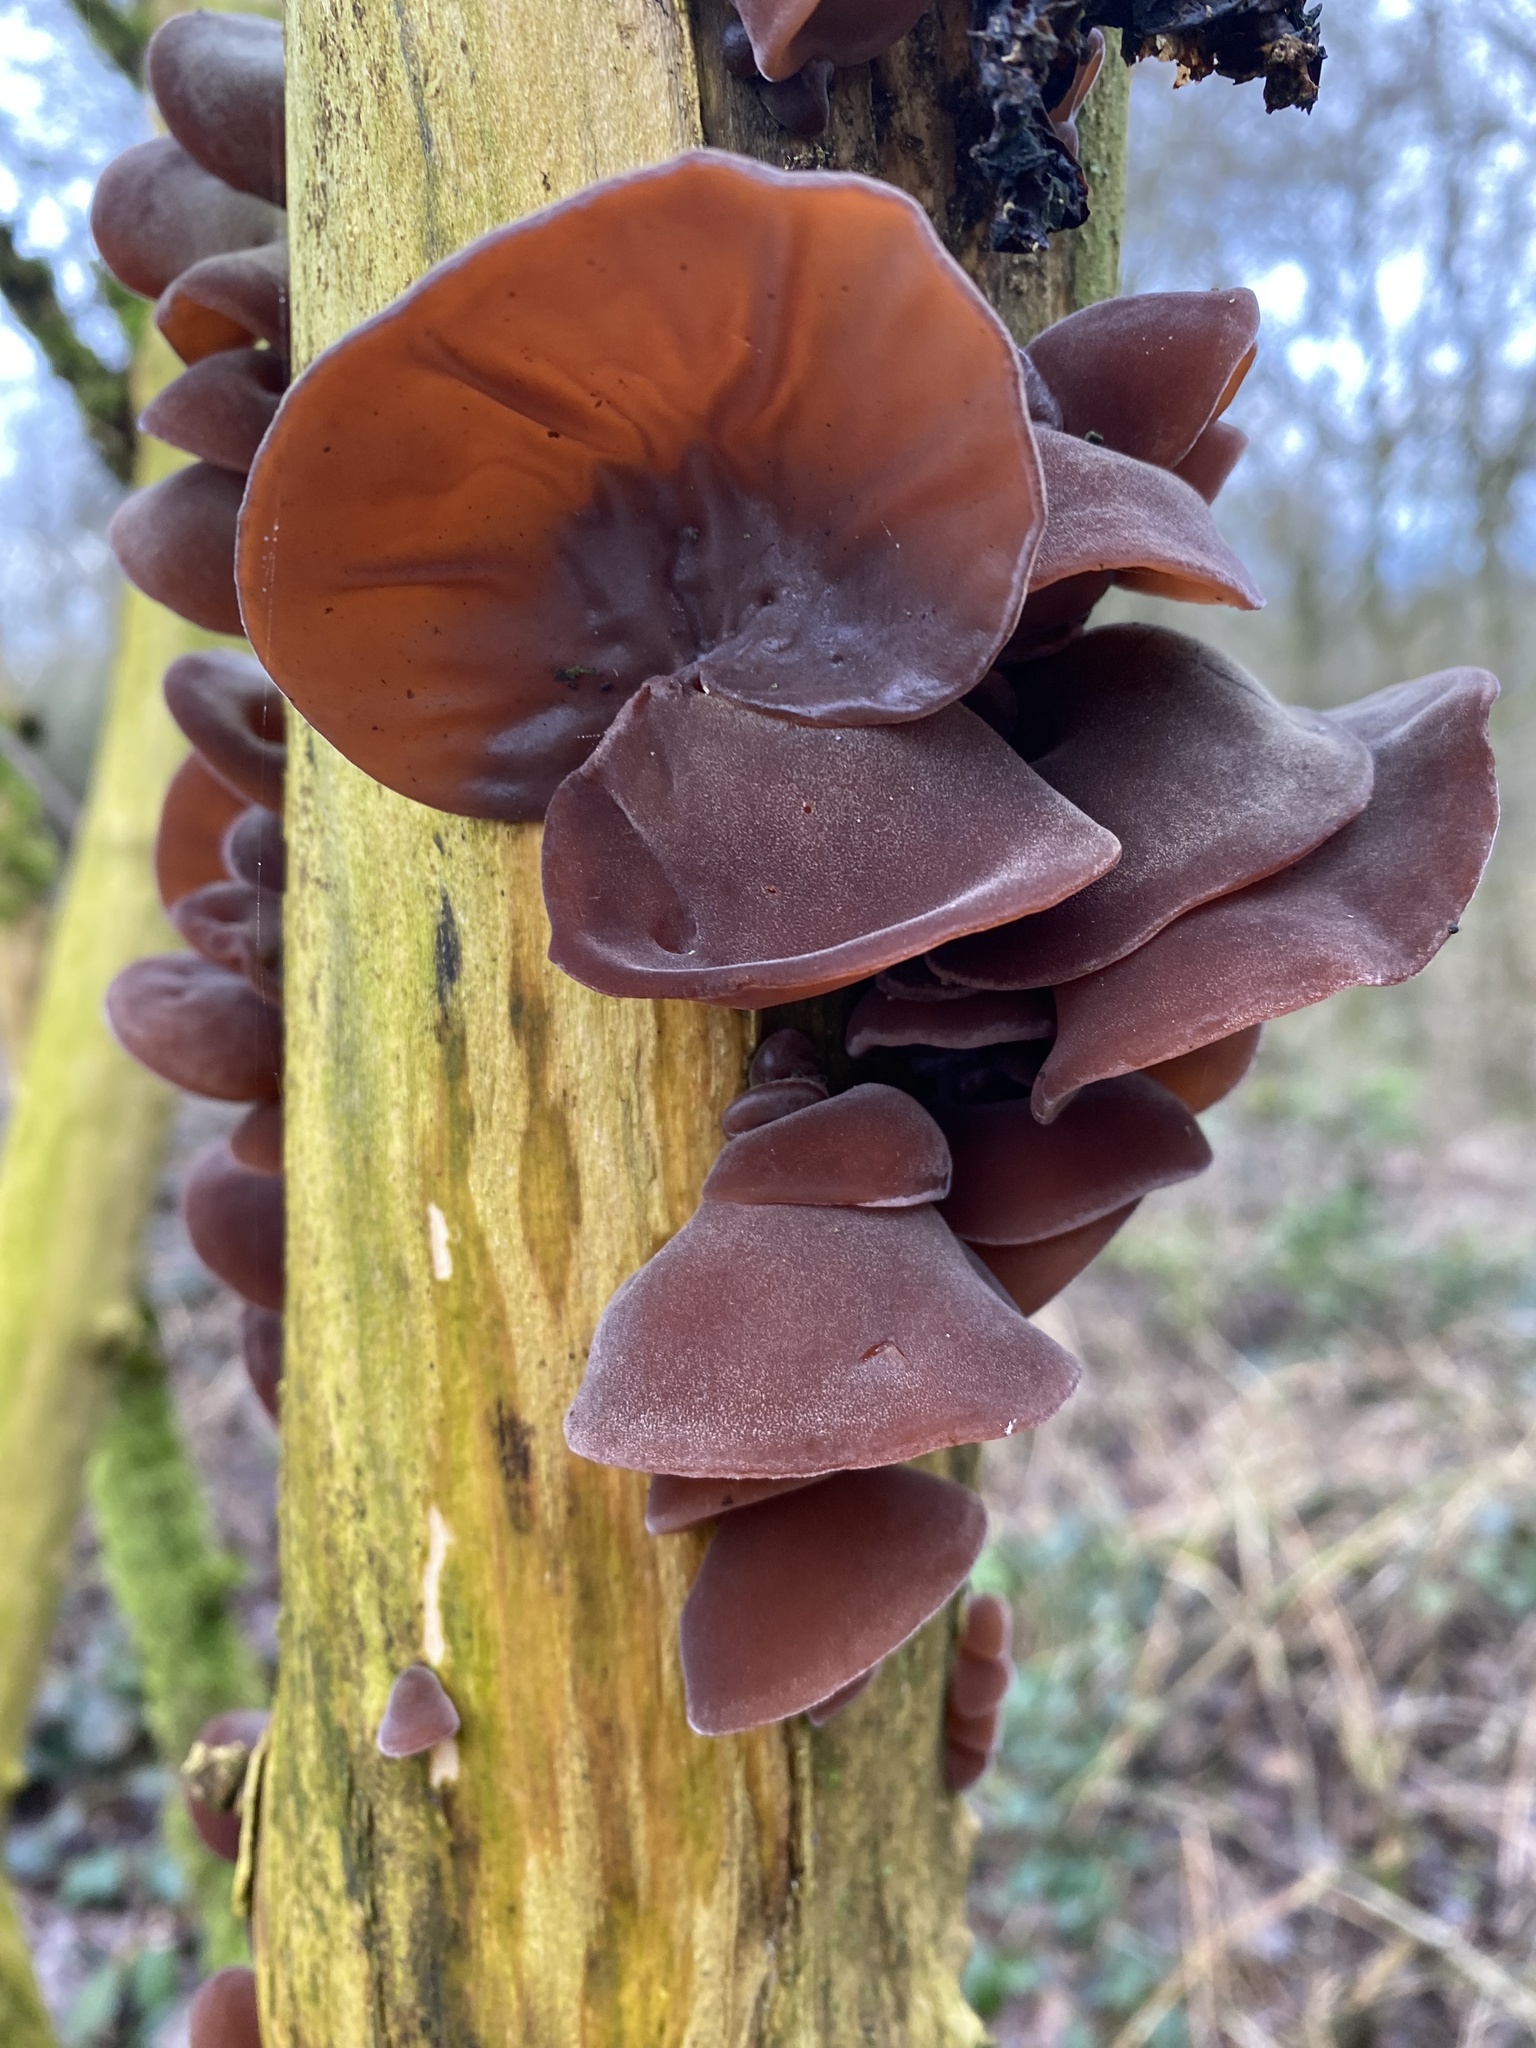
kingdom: Fungi
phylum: Basidiomycota
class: Agaricomycetes
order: Auriculariales
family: Auriculariaceae
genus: Auricularia
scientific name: Auricularia auricula-judae
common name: Jelly ear
